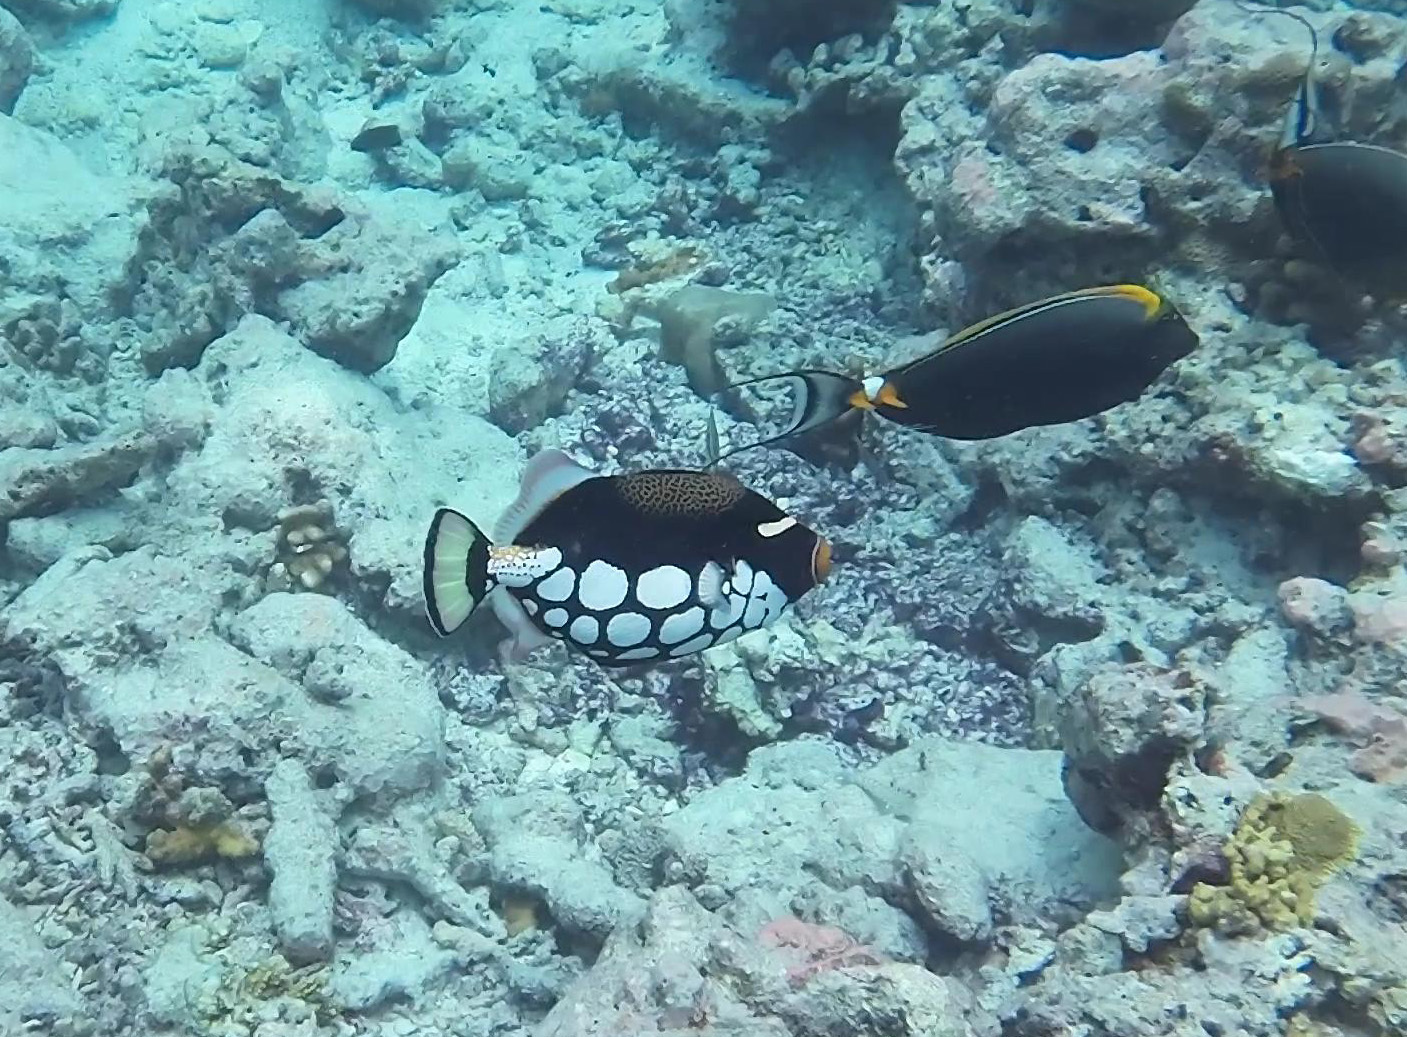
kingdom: Animalia
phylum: Chordata
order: Tetraodontiformes
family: Balistidae
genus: Balistoides
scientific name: Balistoides conspicillum
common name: Clown triggerfish
